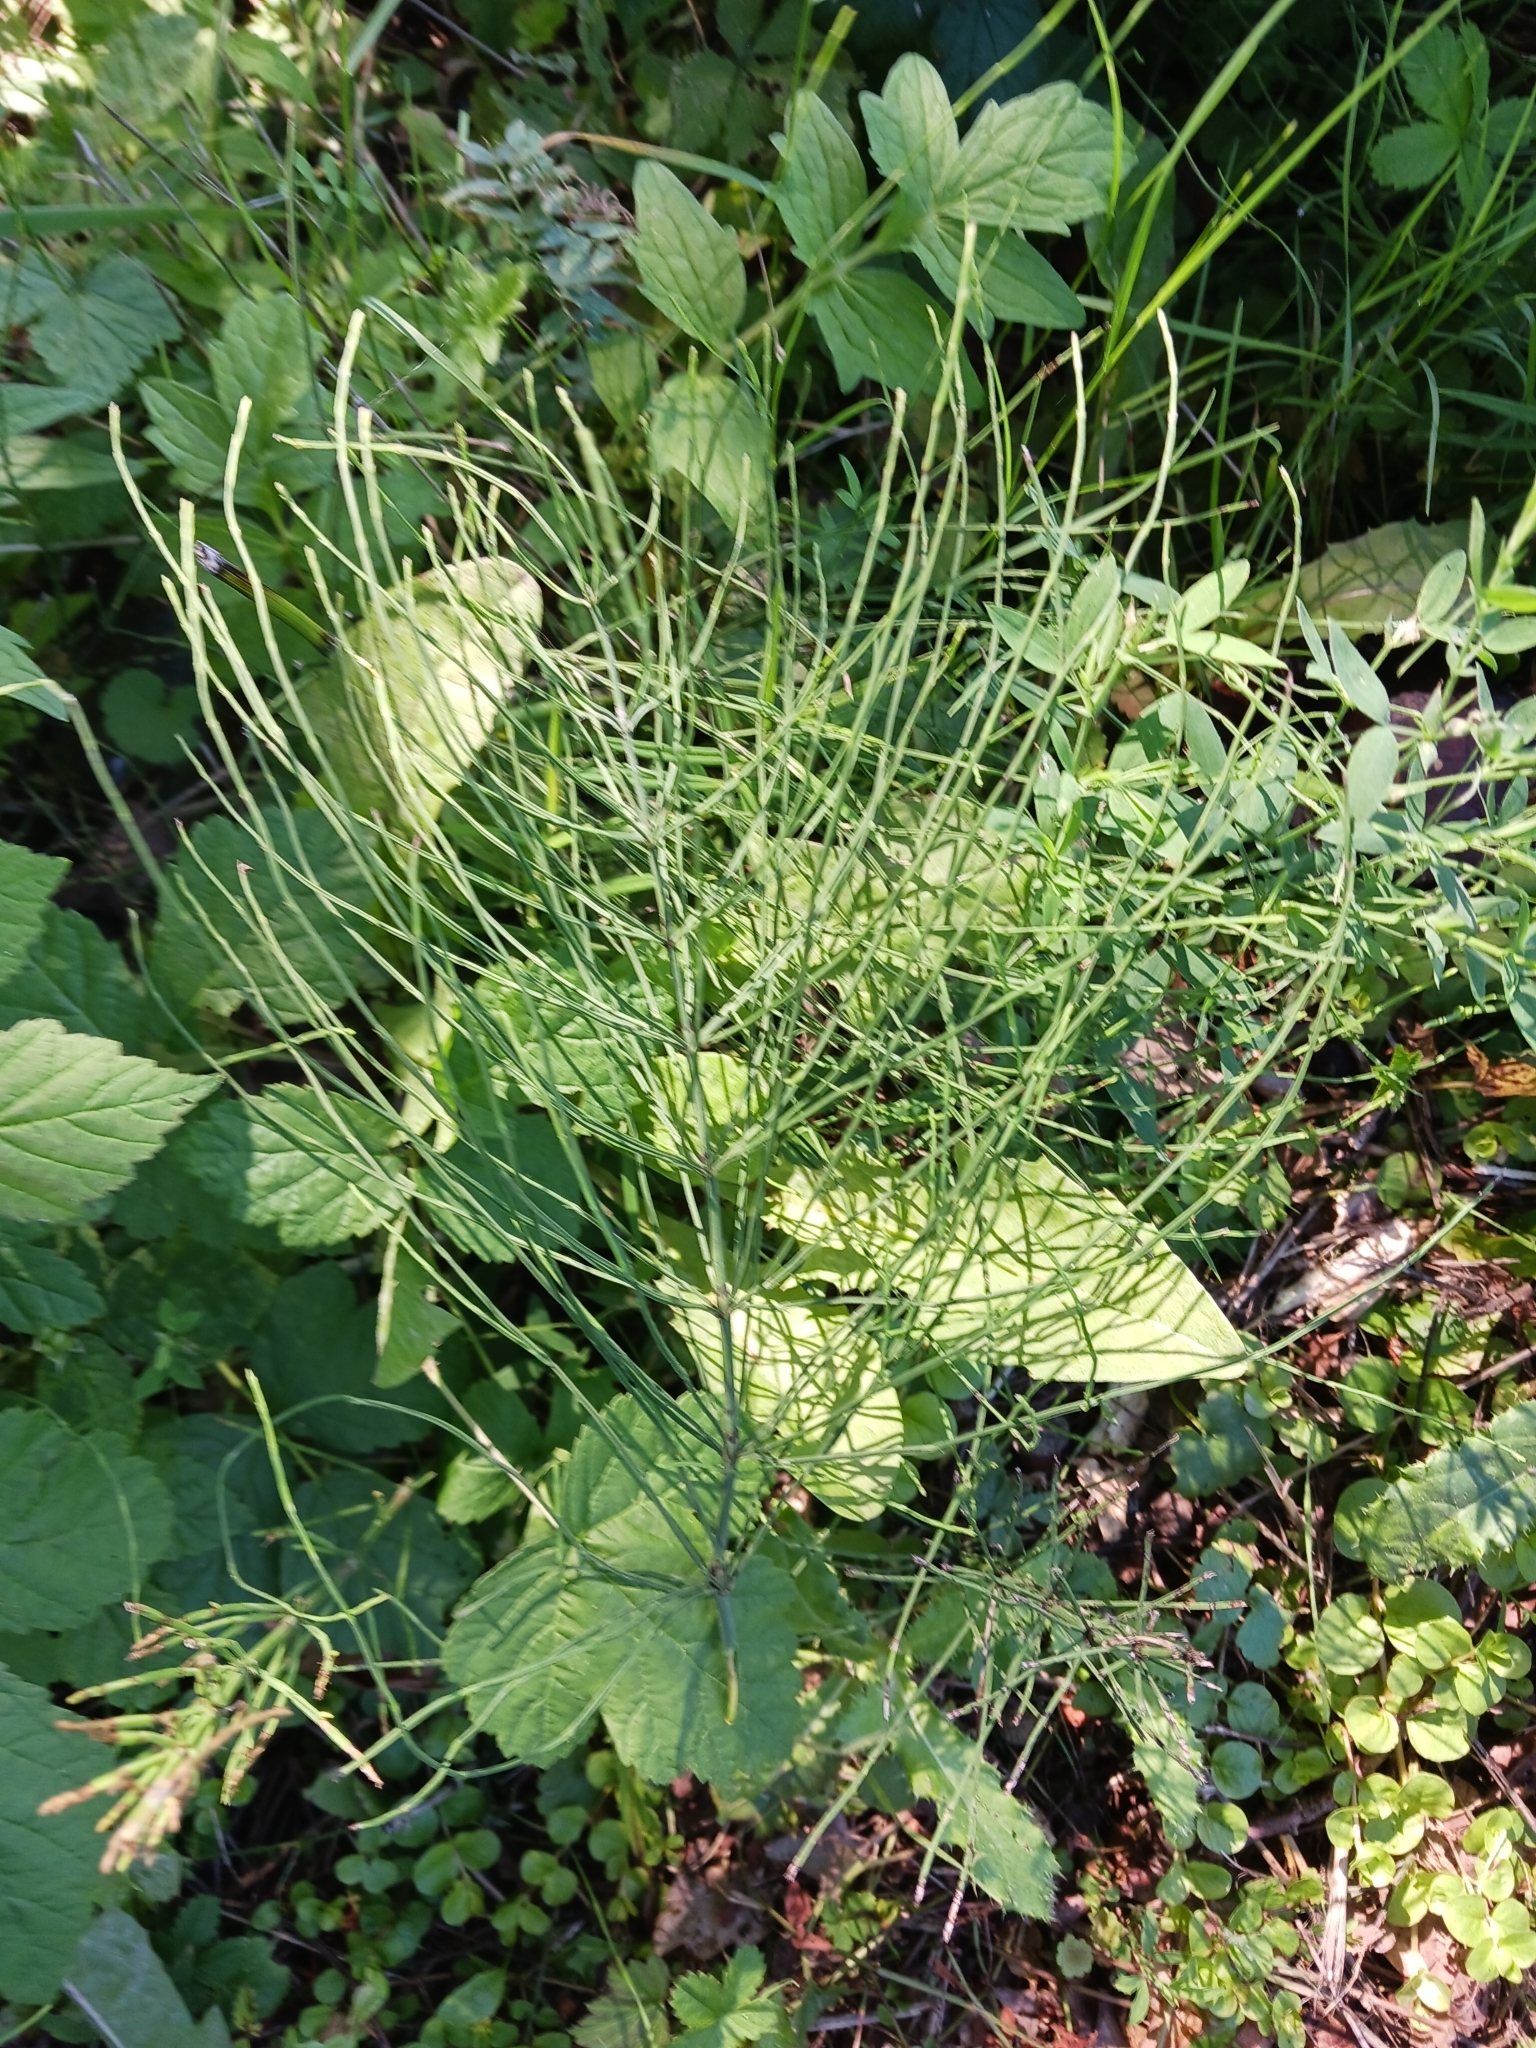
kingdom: Plantae
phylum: Tracheophyta
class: Polypodiopsida
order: Equisetales
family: Equisetaceae
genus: Equisetum
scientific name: Equisetum arvense
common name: Field horsetail
